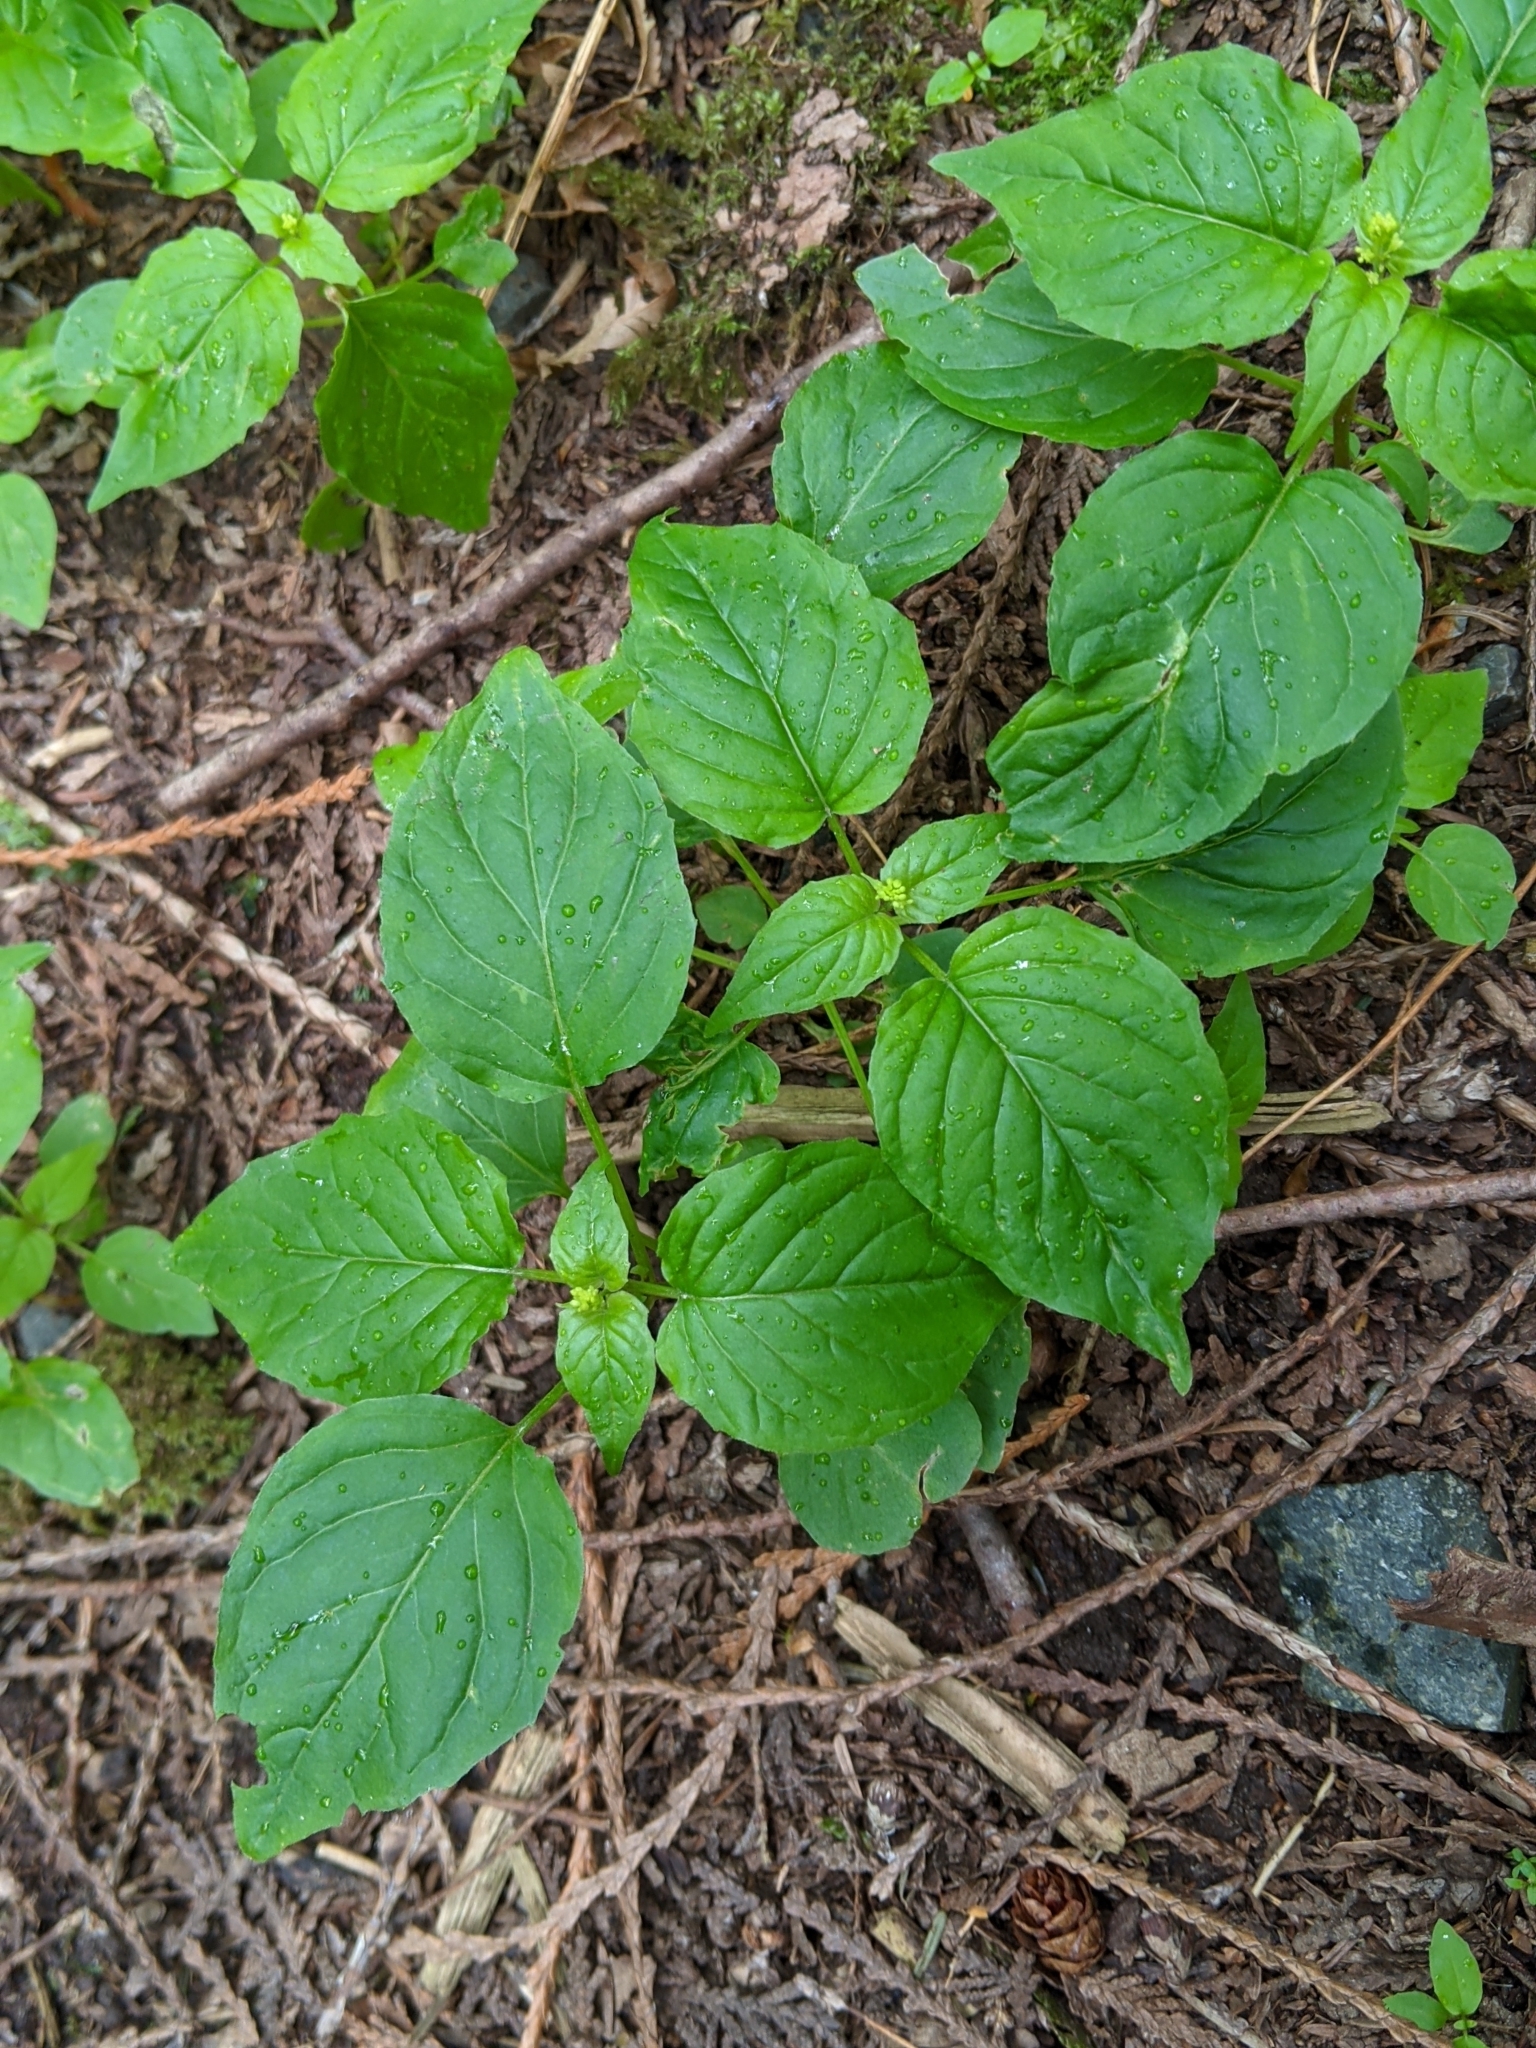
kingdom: Plantae
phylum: Tracheophyta
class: Magnoliopsida
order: Myrtales
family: Onagraceae
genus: Circaea
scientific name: Circaea alpina
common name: Alpine enchanter's-nightshade
